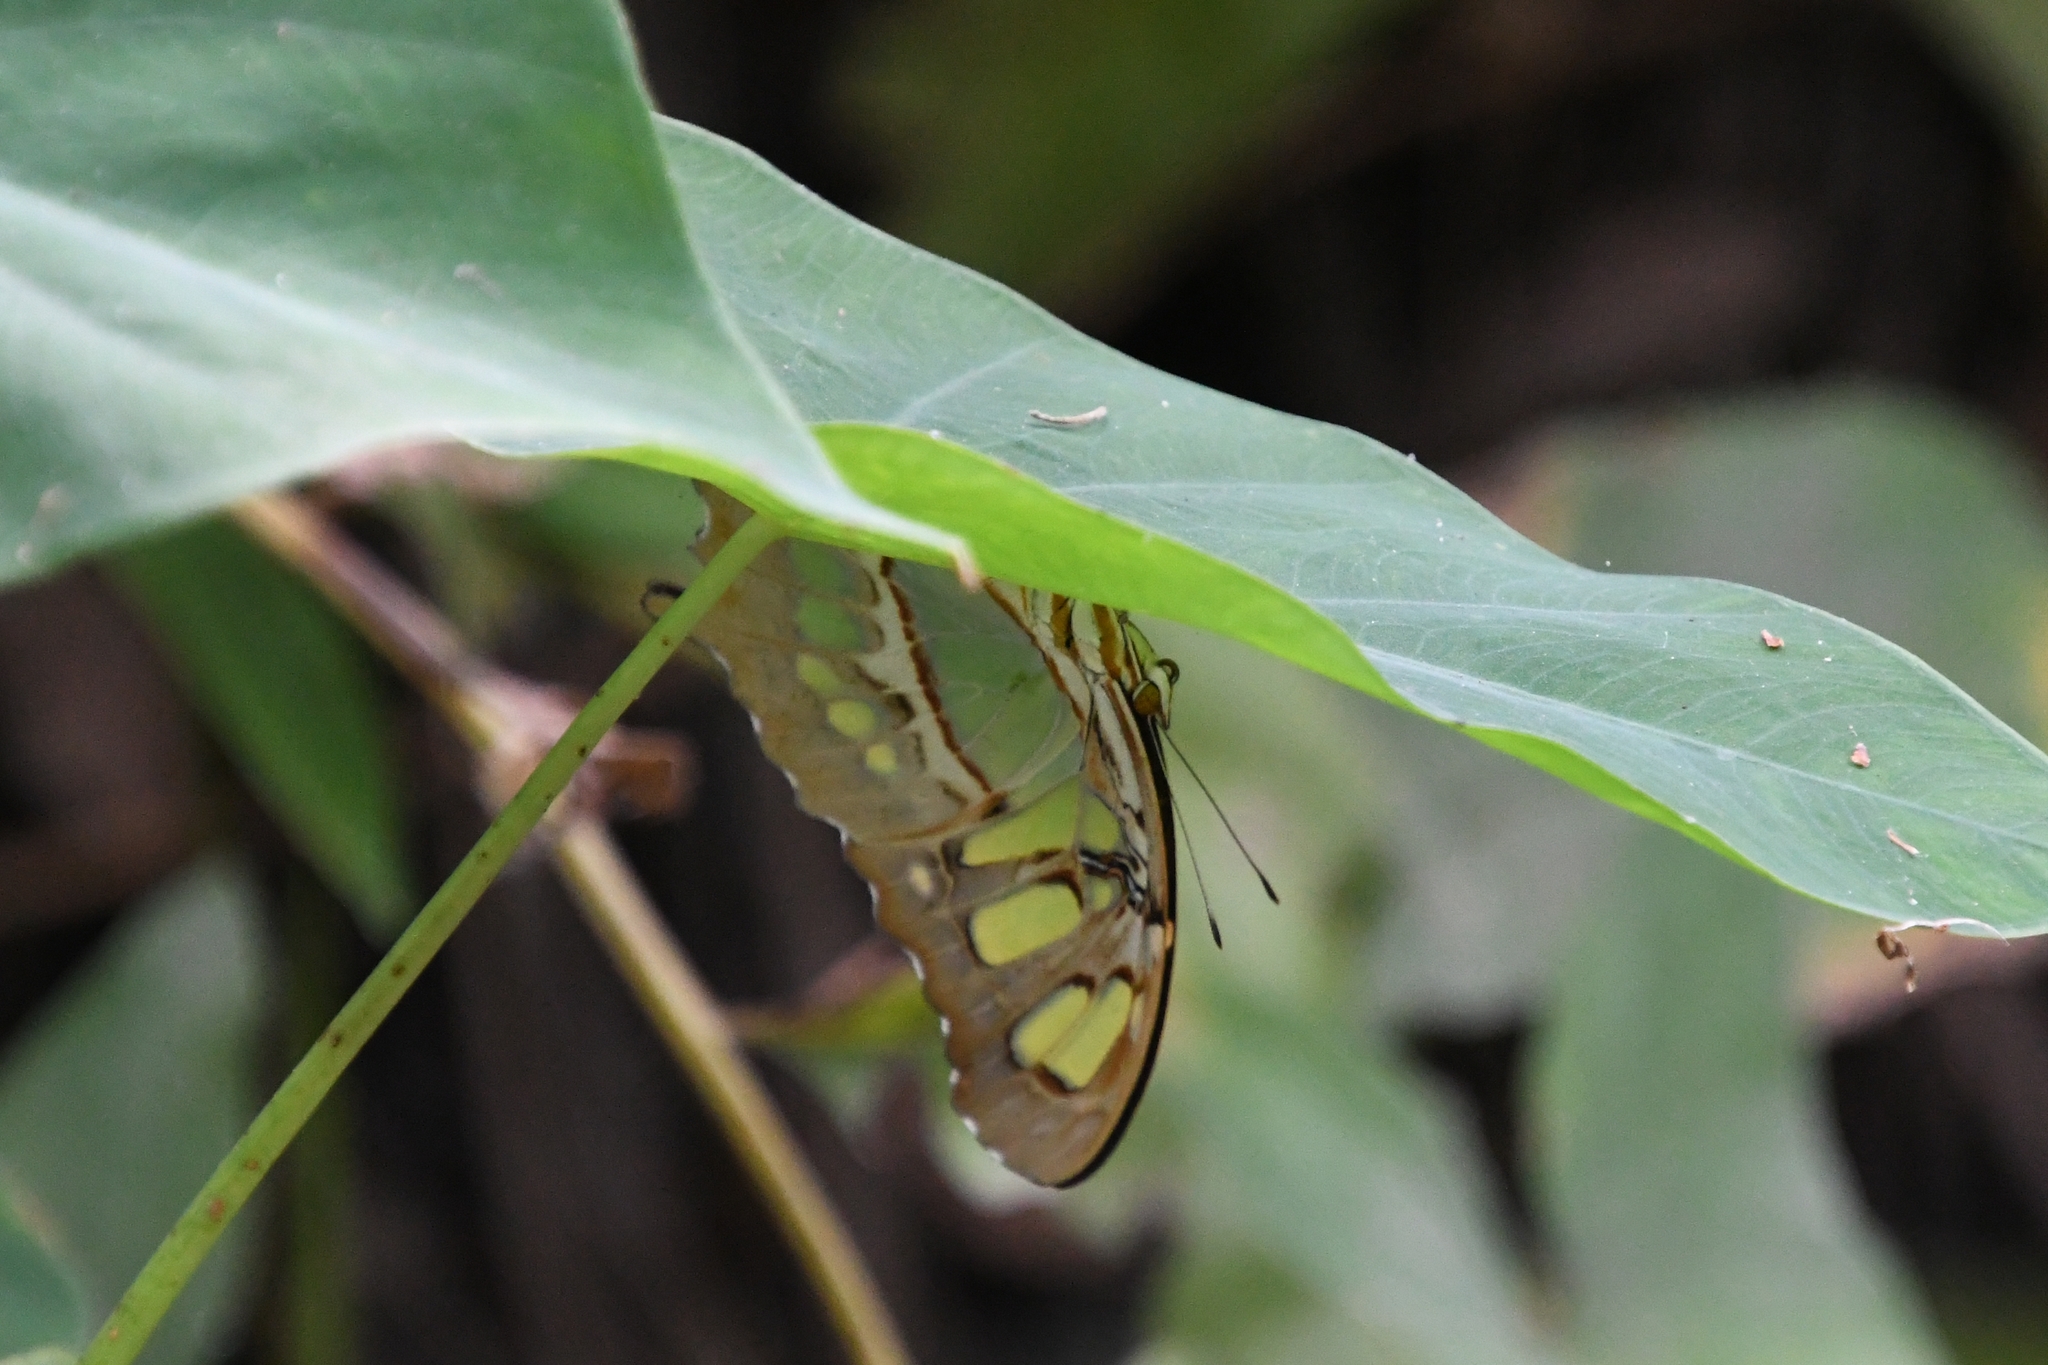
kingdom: Animalia
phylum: Arthropoda
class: Insecta
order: Lepidoptera
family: Nymphalidae
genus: Siproeta
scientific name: Siproeta stelenes
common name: Malachite
